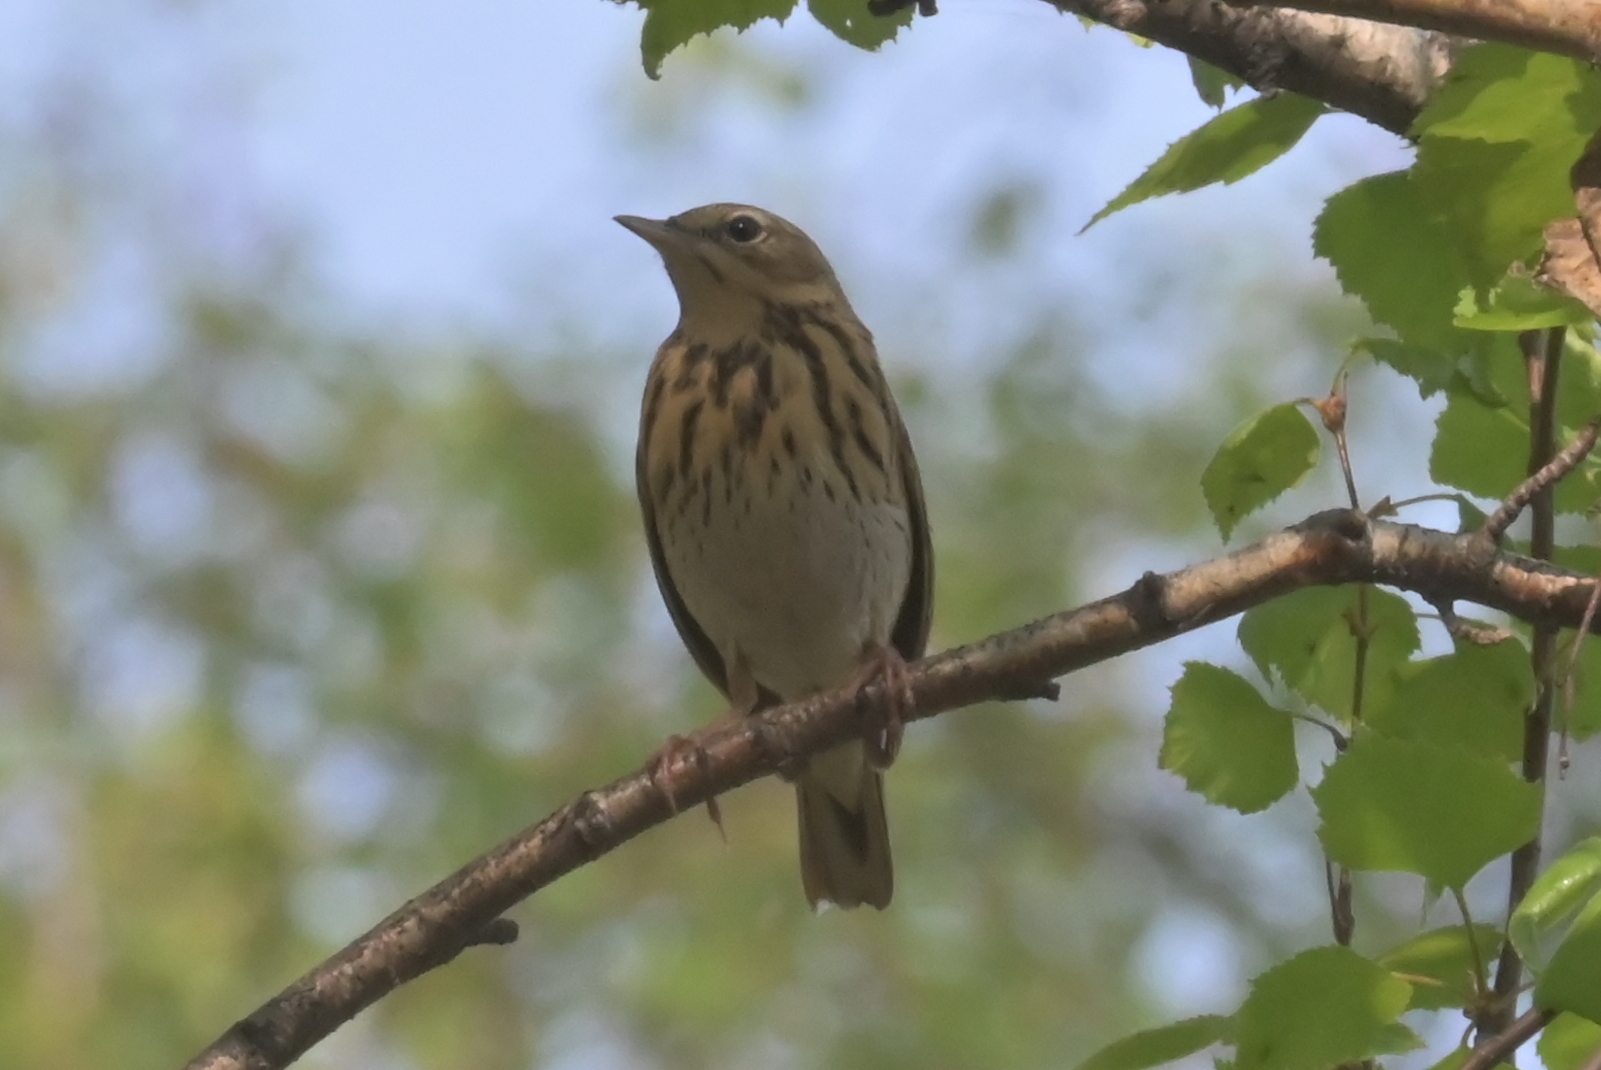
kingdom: Animalia
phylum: Chordata
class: Aves
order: Passeriformes
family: Motacillidae
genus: Anthus
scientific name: Anthus trivialis
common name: Tree pipit
